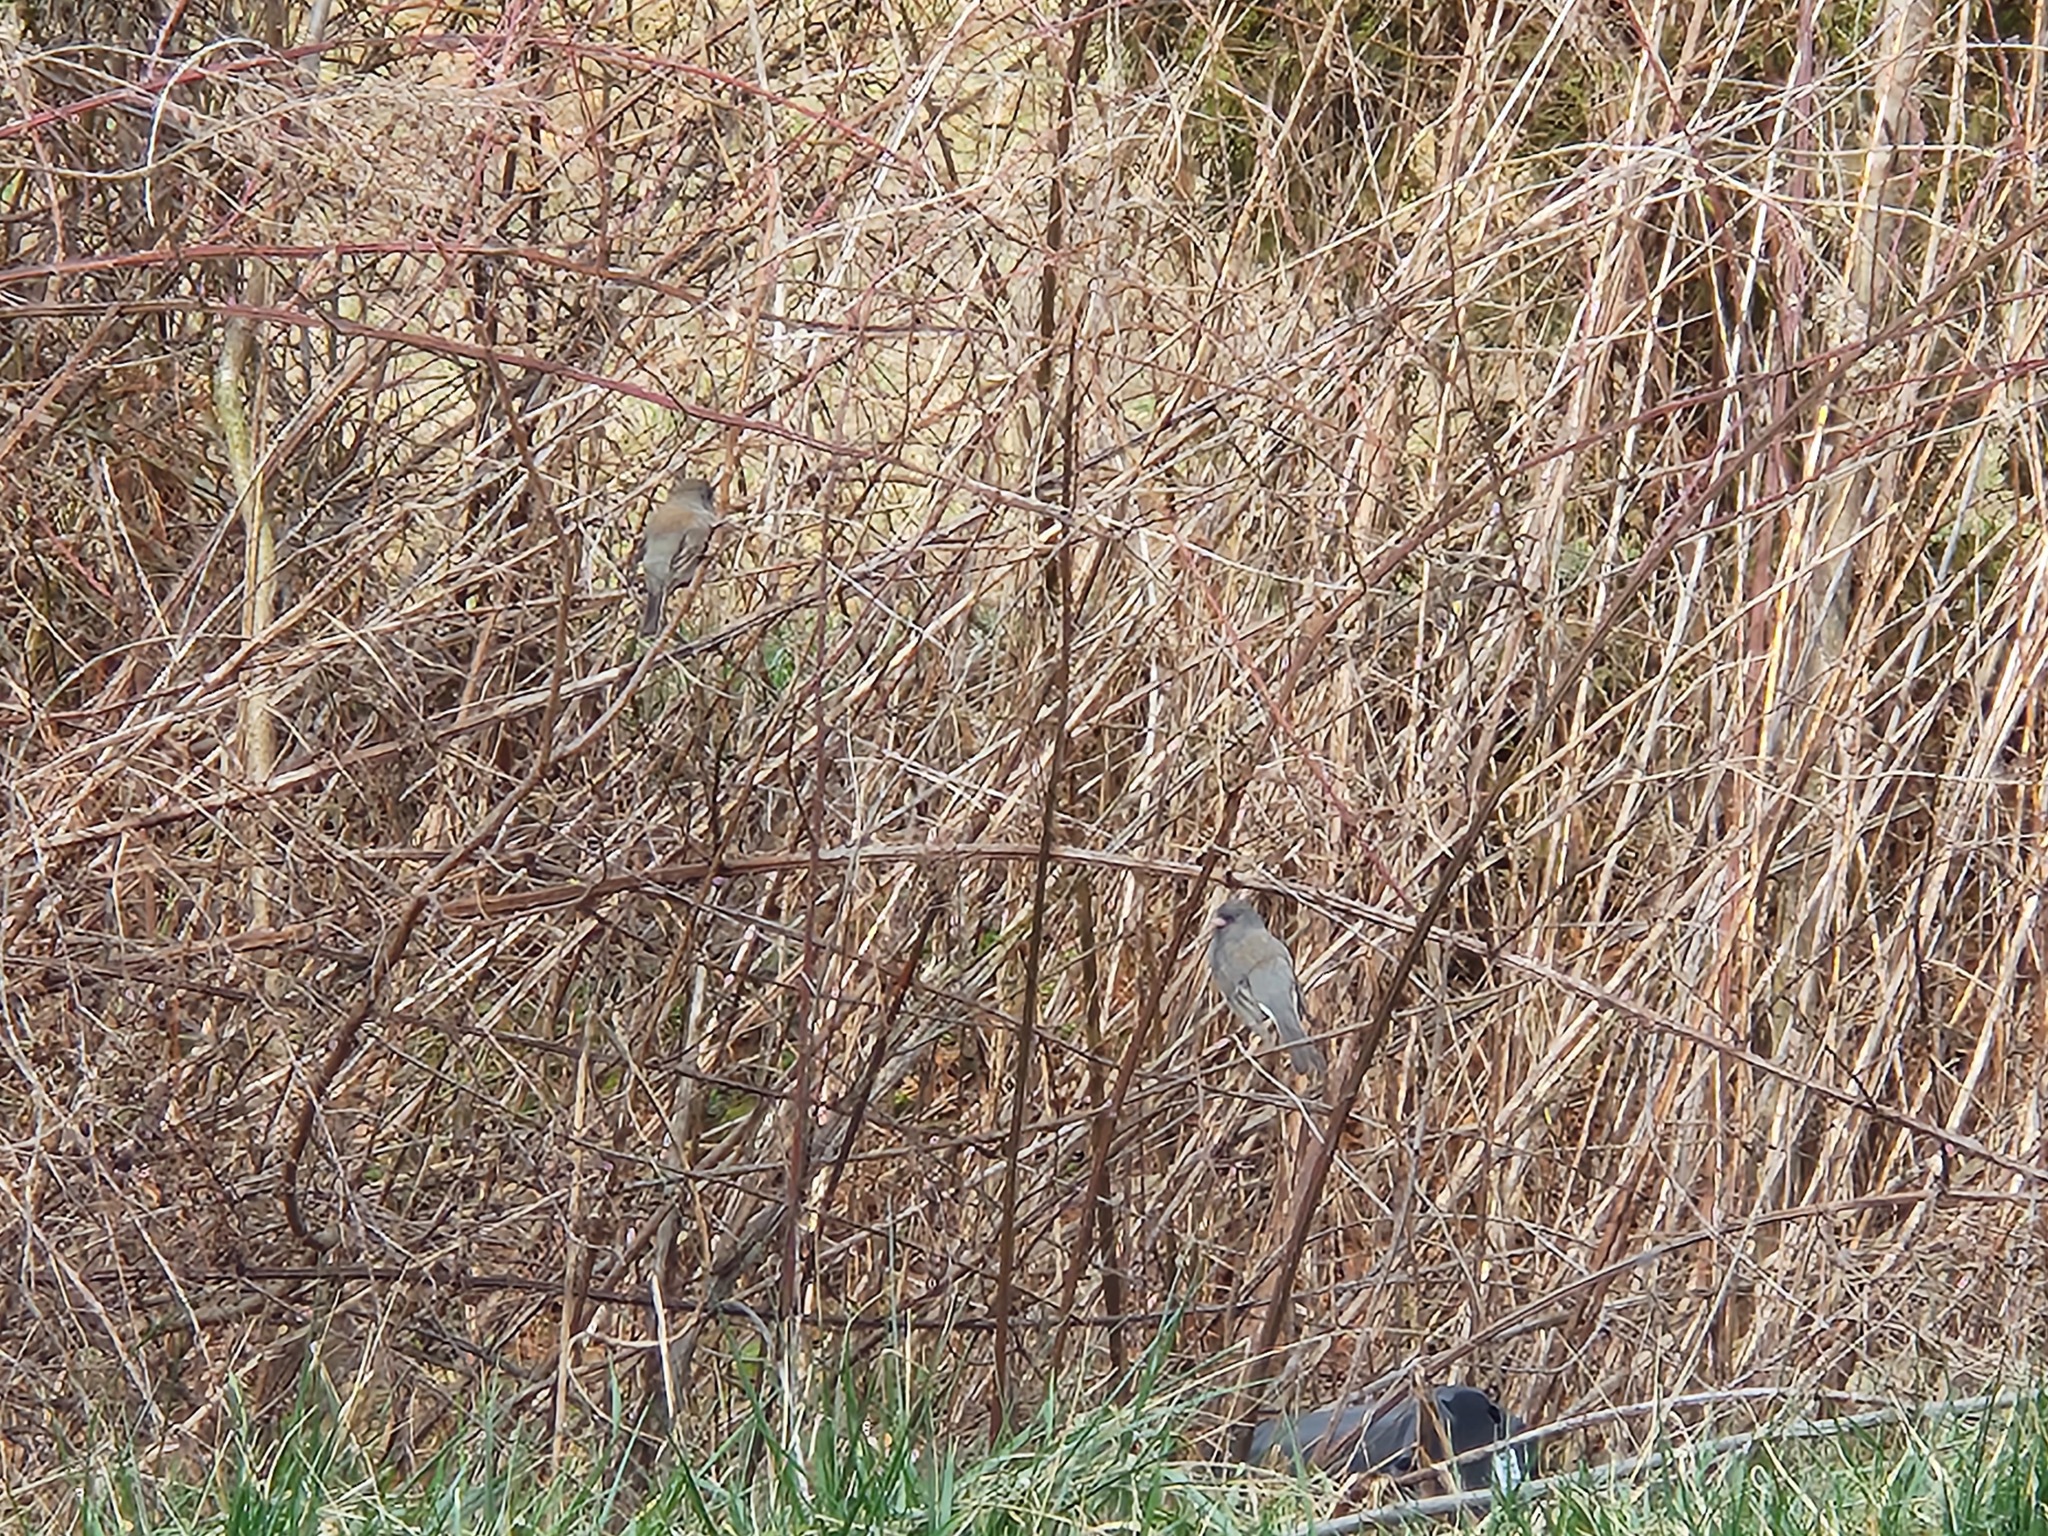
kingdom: Animalia
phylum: Chordata
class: Aves
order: Passeriformes
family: Passerellidae
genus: Junco
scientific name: Junco hyemalis
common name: Dark-eyed junco
